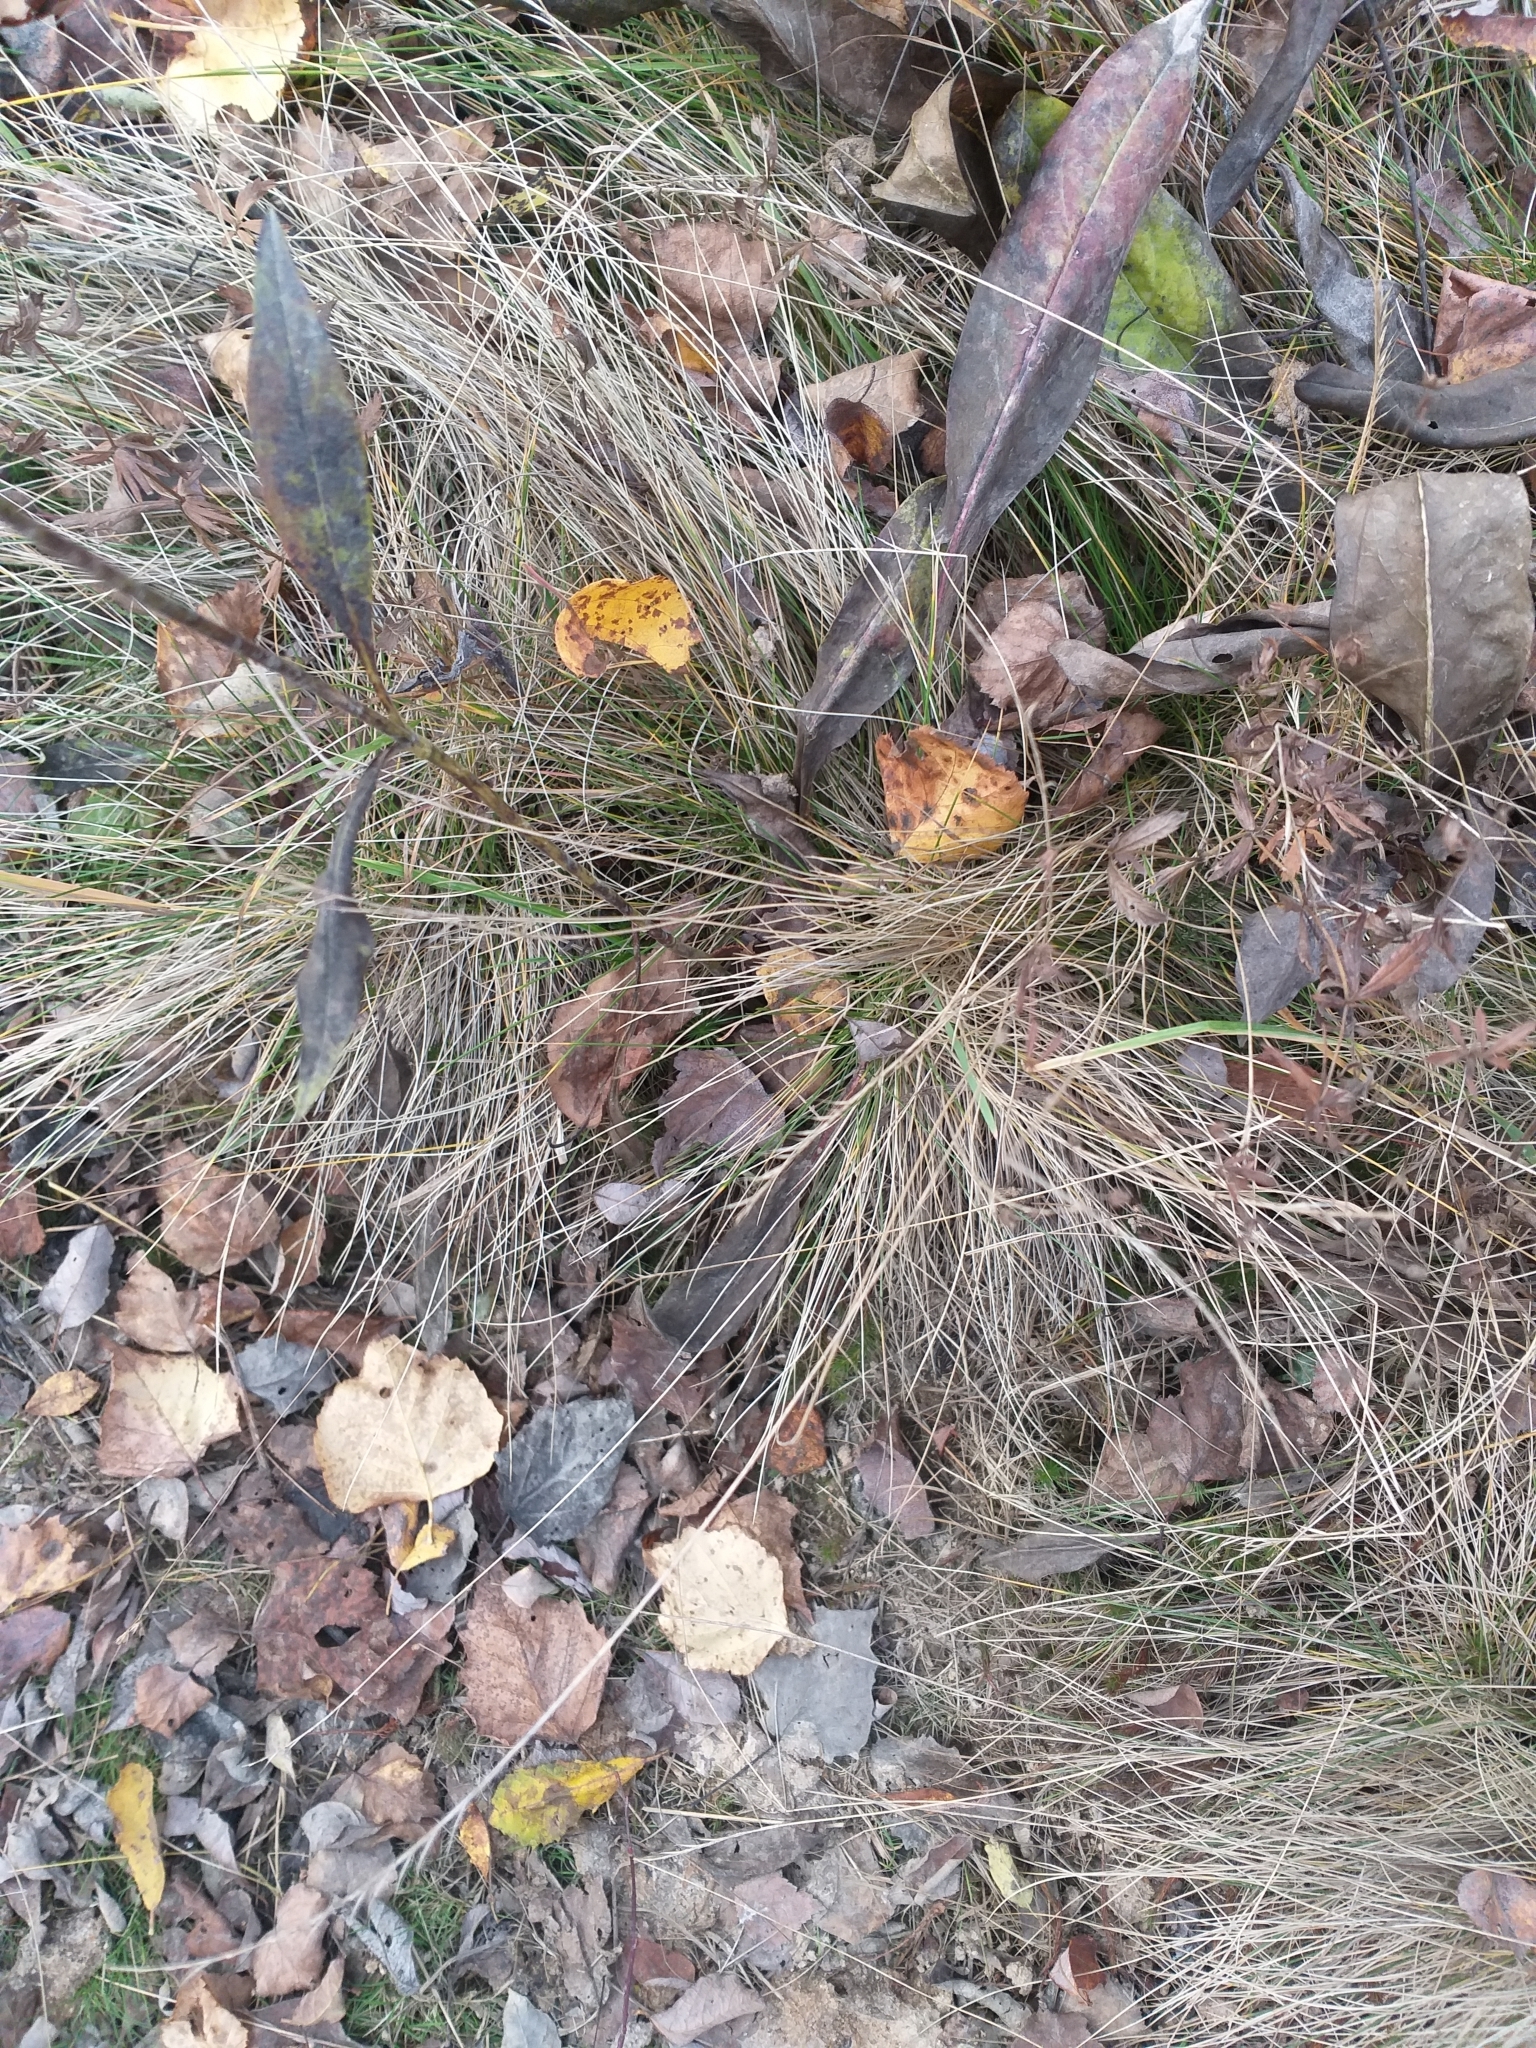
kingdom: Plantae
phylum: Tracheophyta
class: Liliopsida
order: Poales
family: Poaceae
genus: Nardus
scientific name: Nardus stricta
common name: Mat-grass
